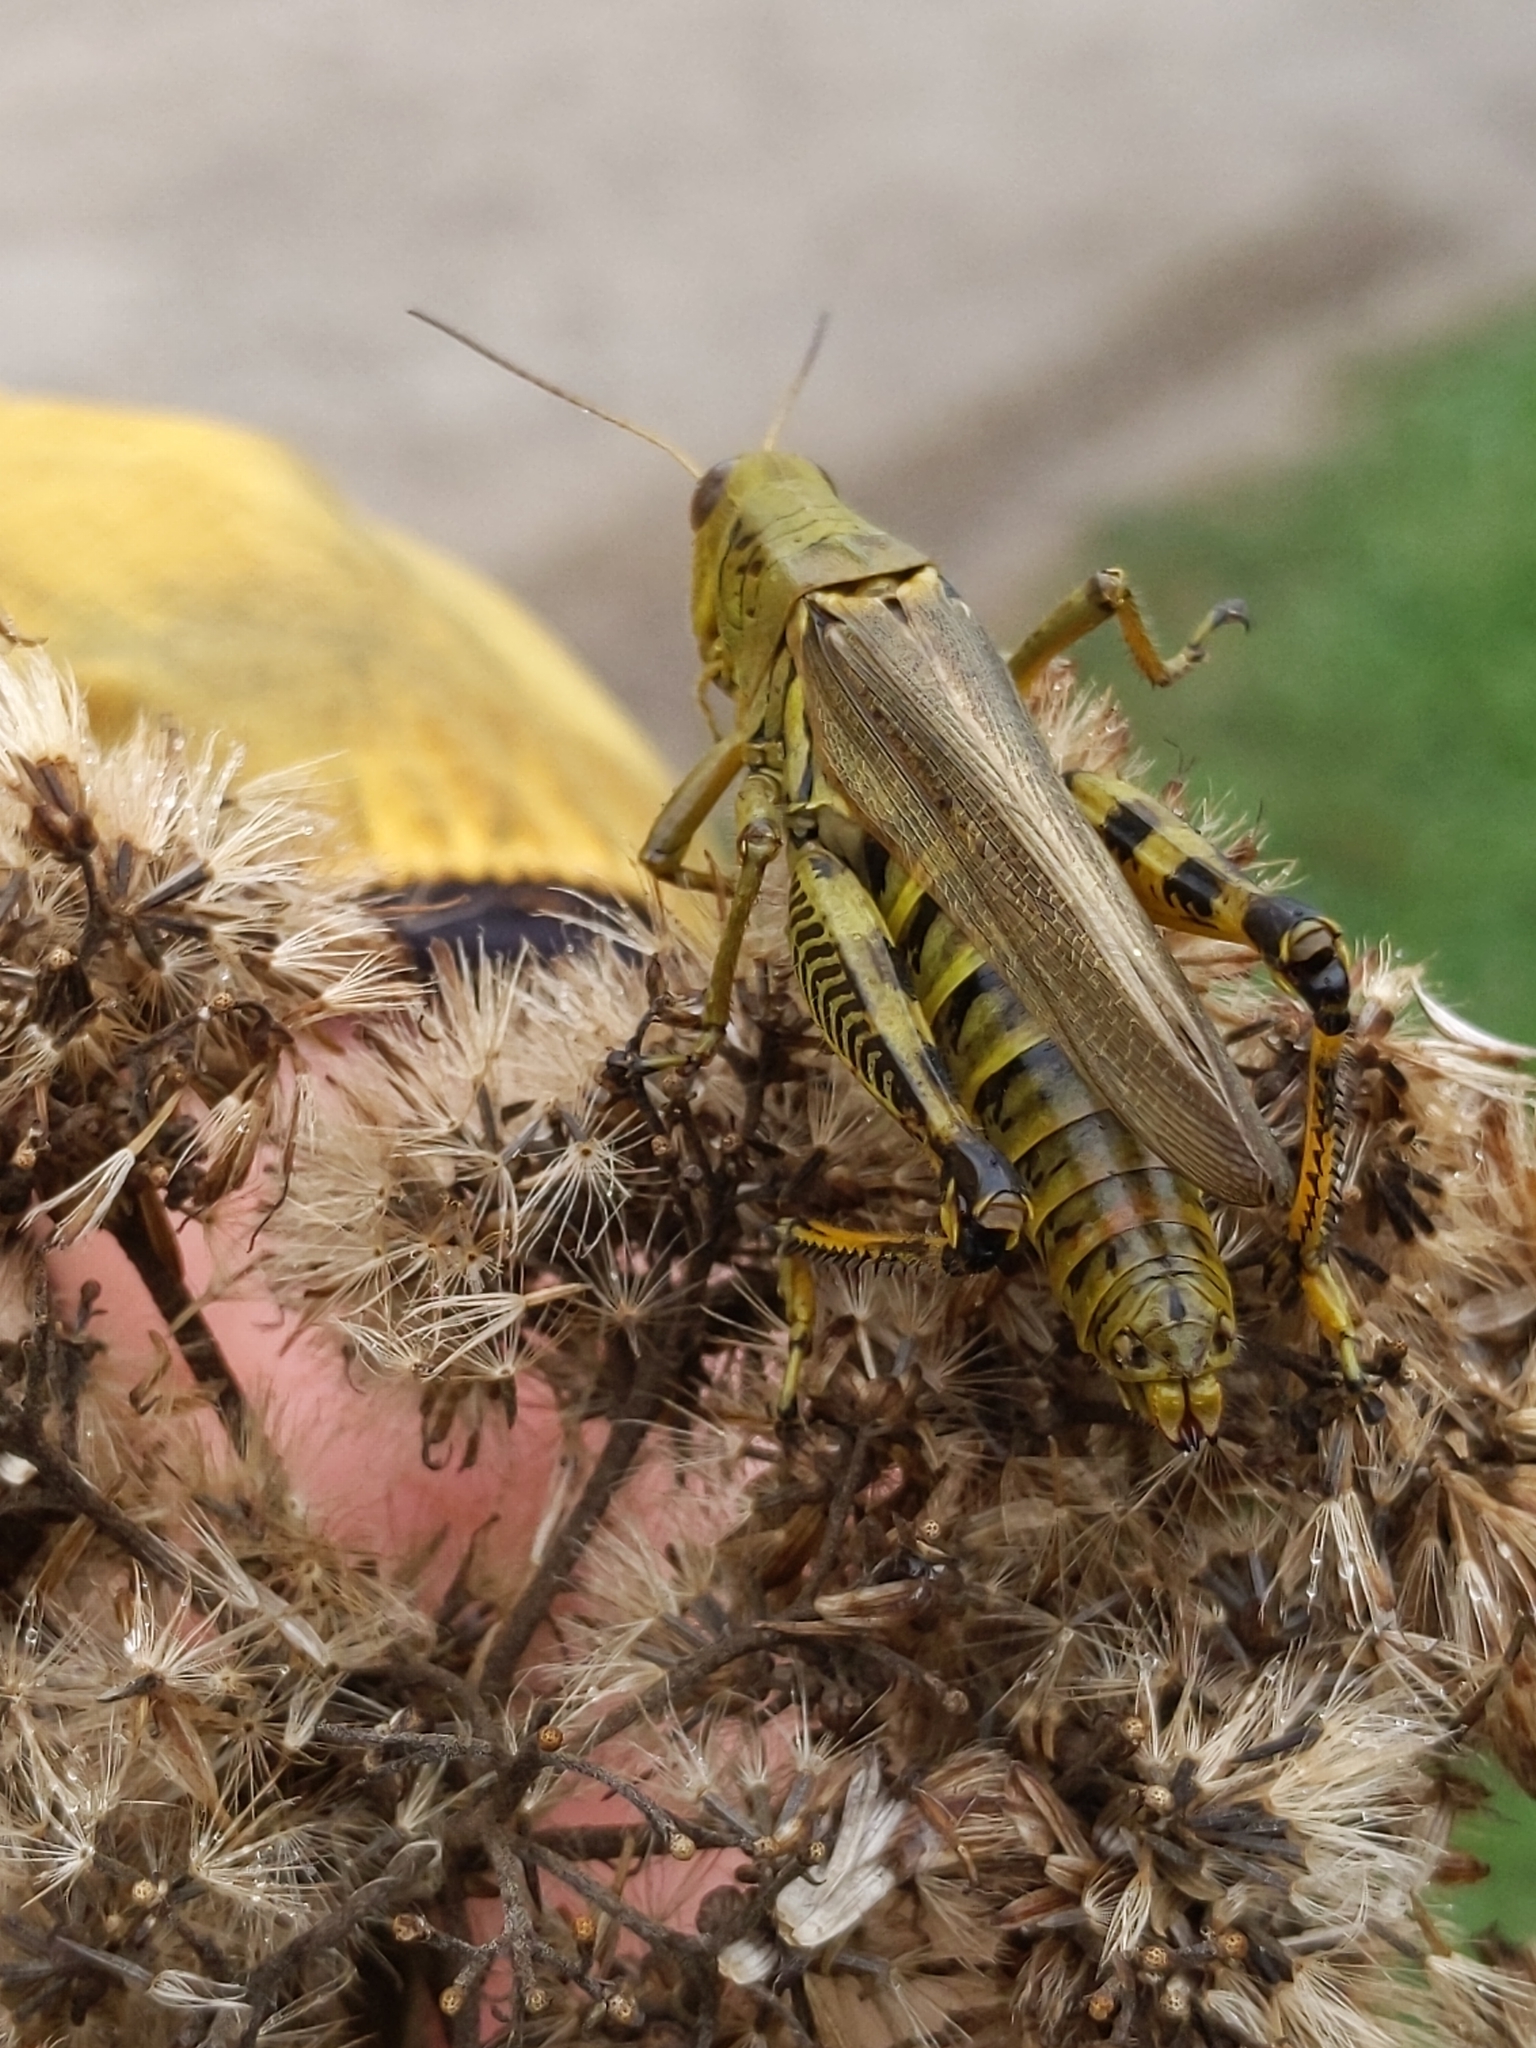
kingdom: Animalia
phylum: Arthropoda
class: Insecta
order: Orthoptera
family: Acrididae
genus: Melanoplus
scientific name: Melanoplus differentialis
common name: Differential grasshopper
